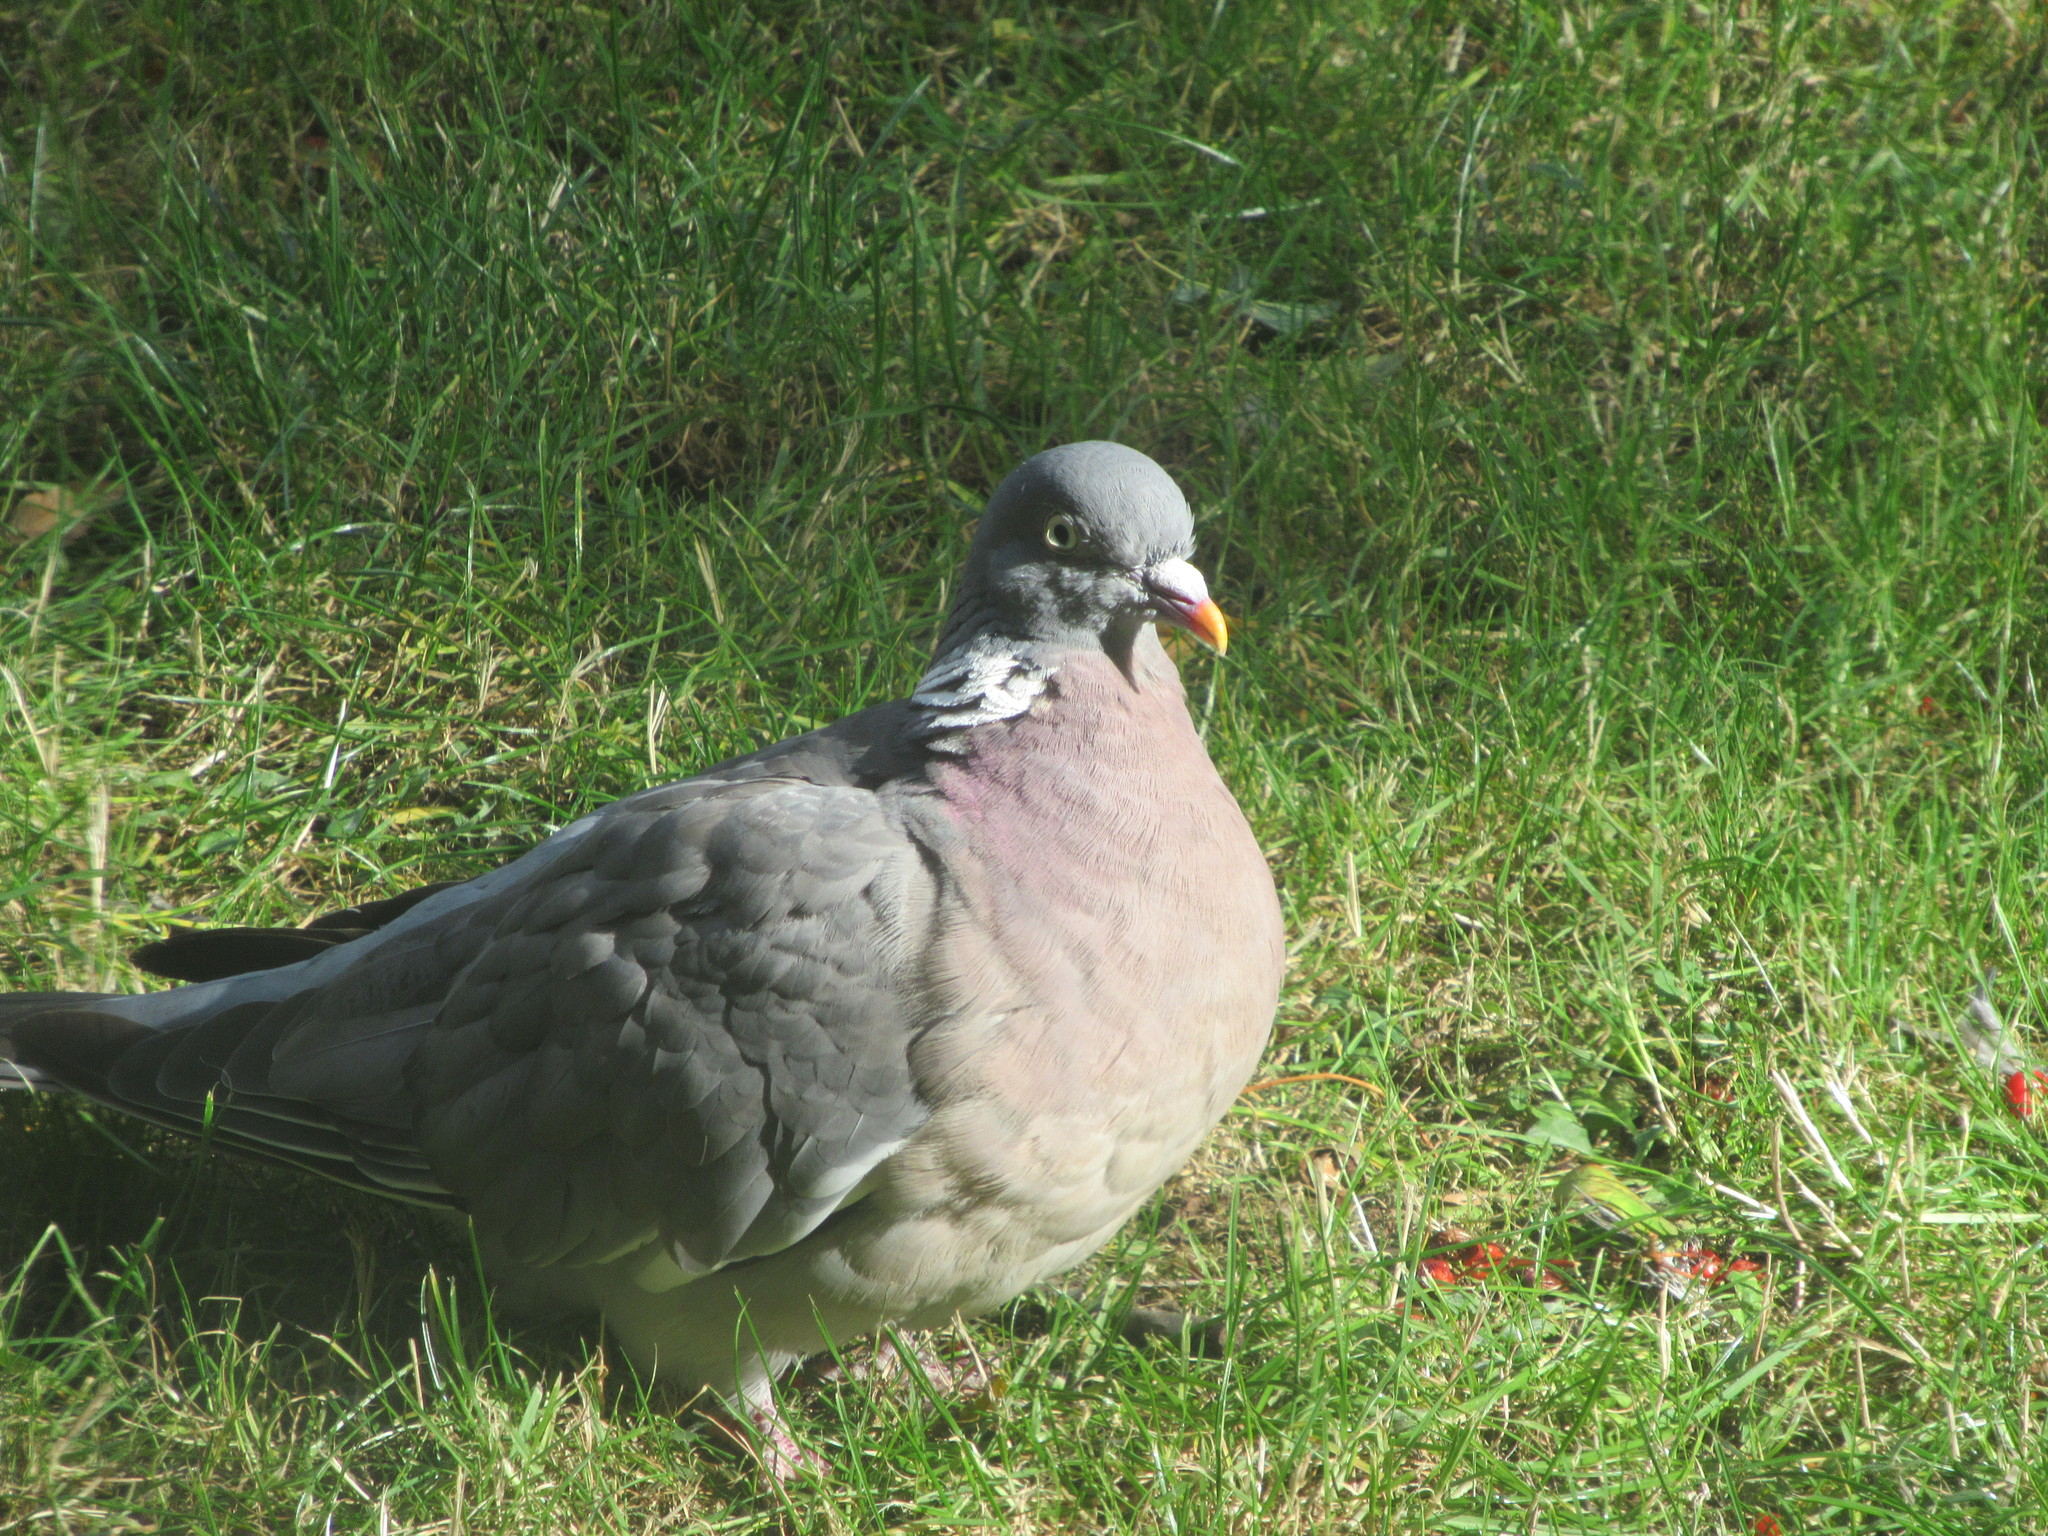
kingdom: Animalia
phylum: Chordata
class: Aves
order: Columbiformes
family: Columbidae
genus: Columba
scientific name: Columba palumbus
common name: Common wood pigeon
